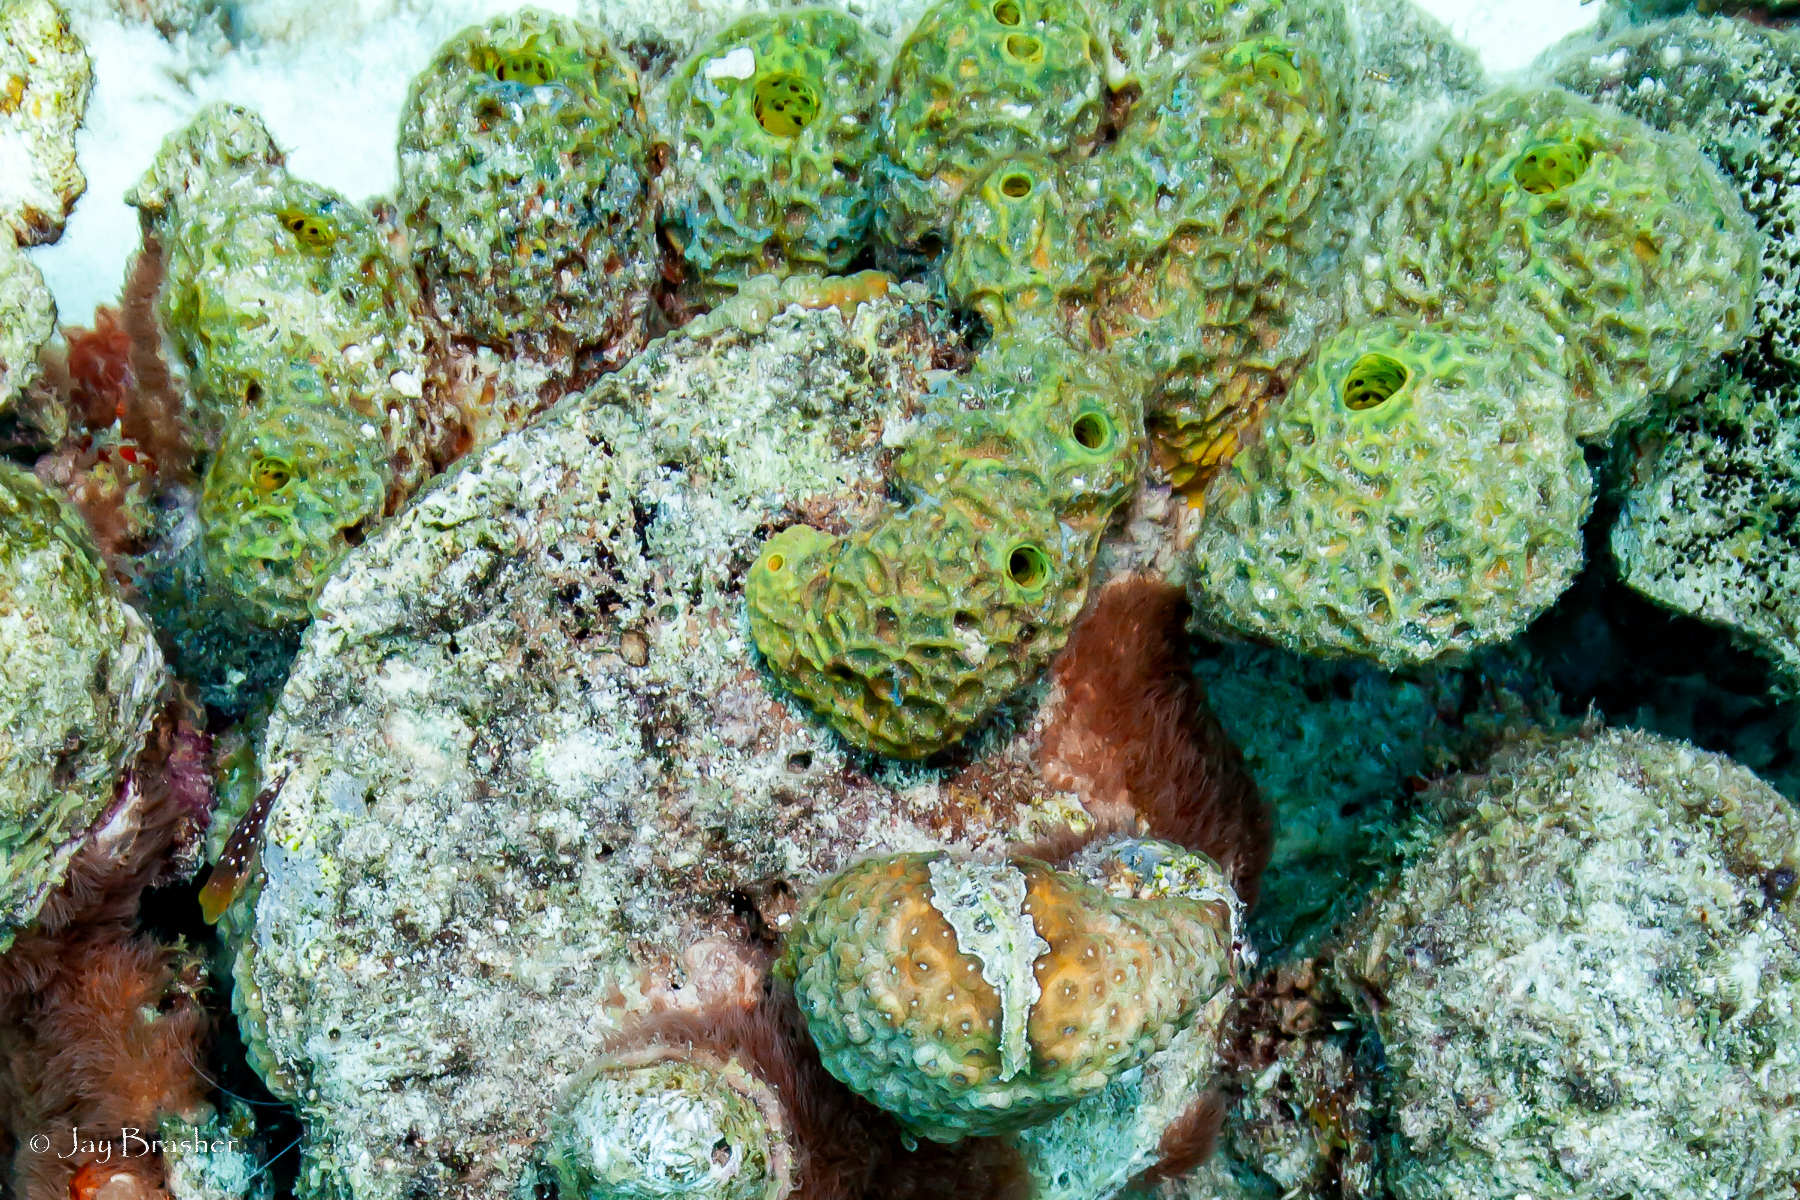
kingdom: Animalia
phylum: Porifera
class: Demospongiae
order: Verongiida
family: Aplysinidae
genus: Verongula
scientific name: Verongula rigida
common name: Pitted sponge
